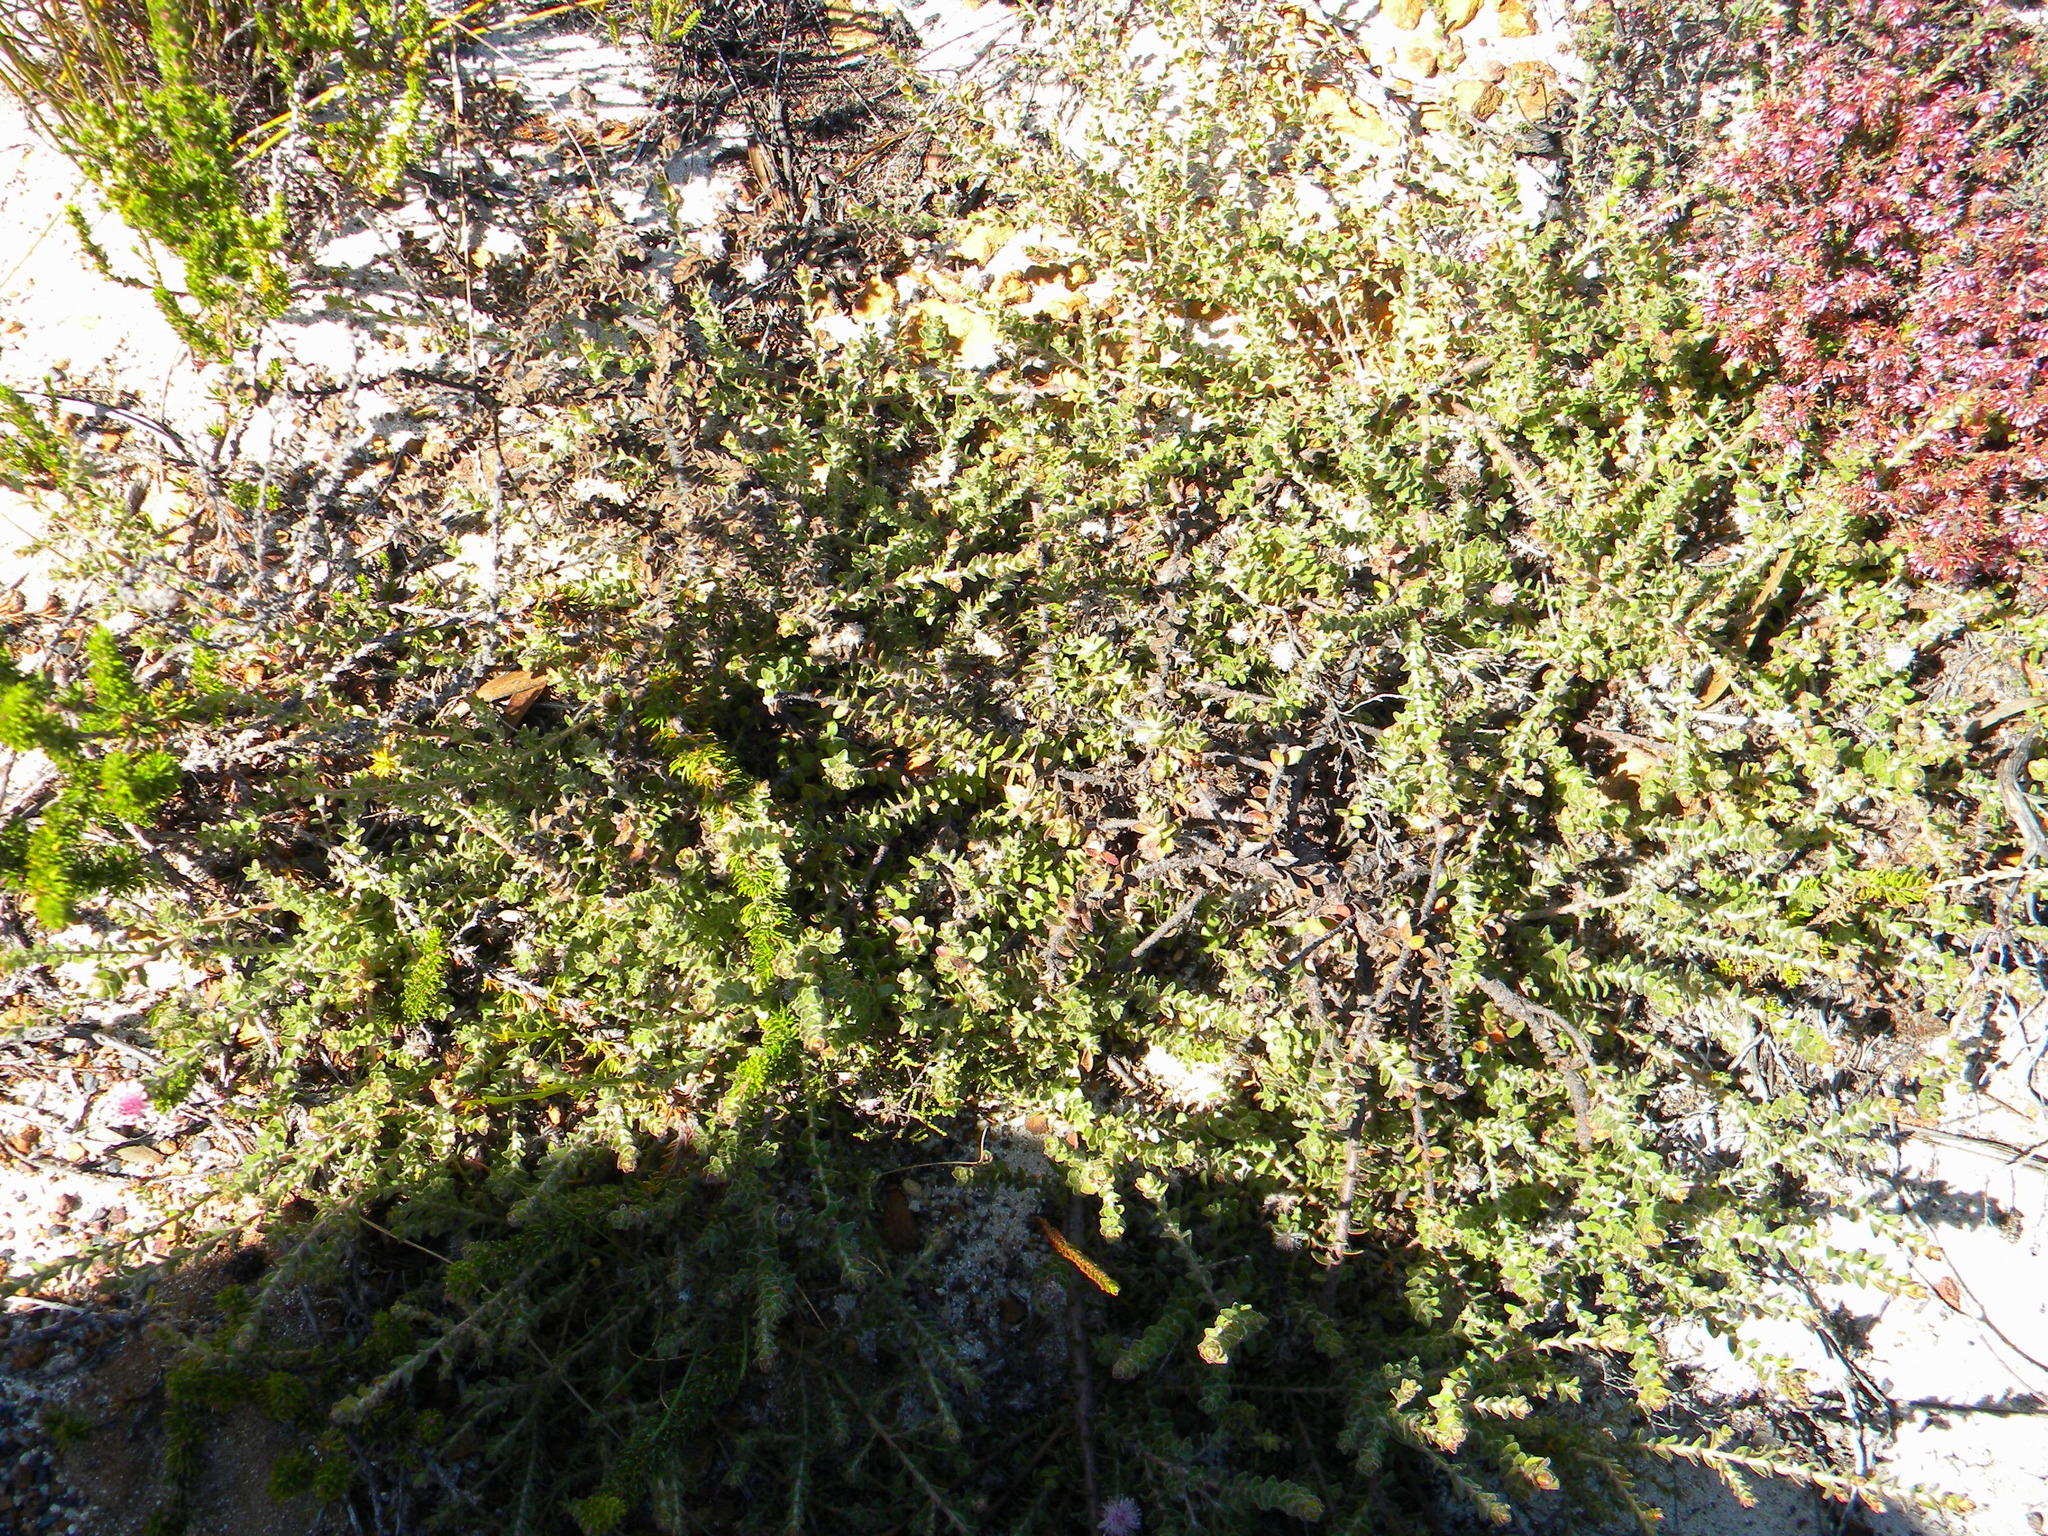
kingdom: Plantae
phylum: Tracheophyta
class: Magnoliopsida
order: Proteales
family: Proteaceae
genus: Diastella
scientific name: Diastella divaricata
